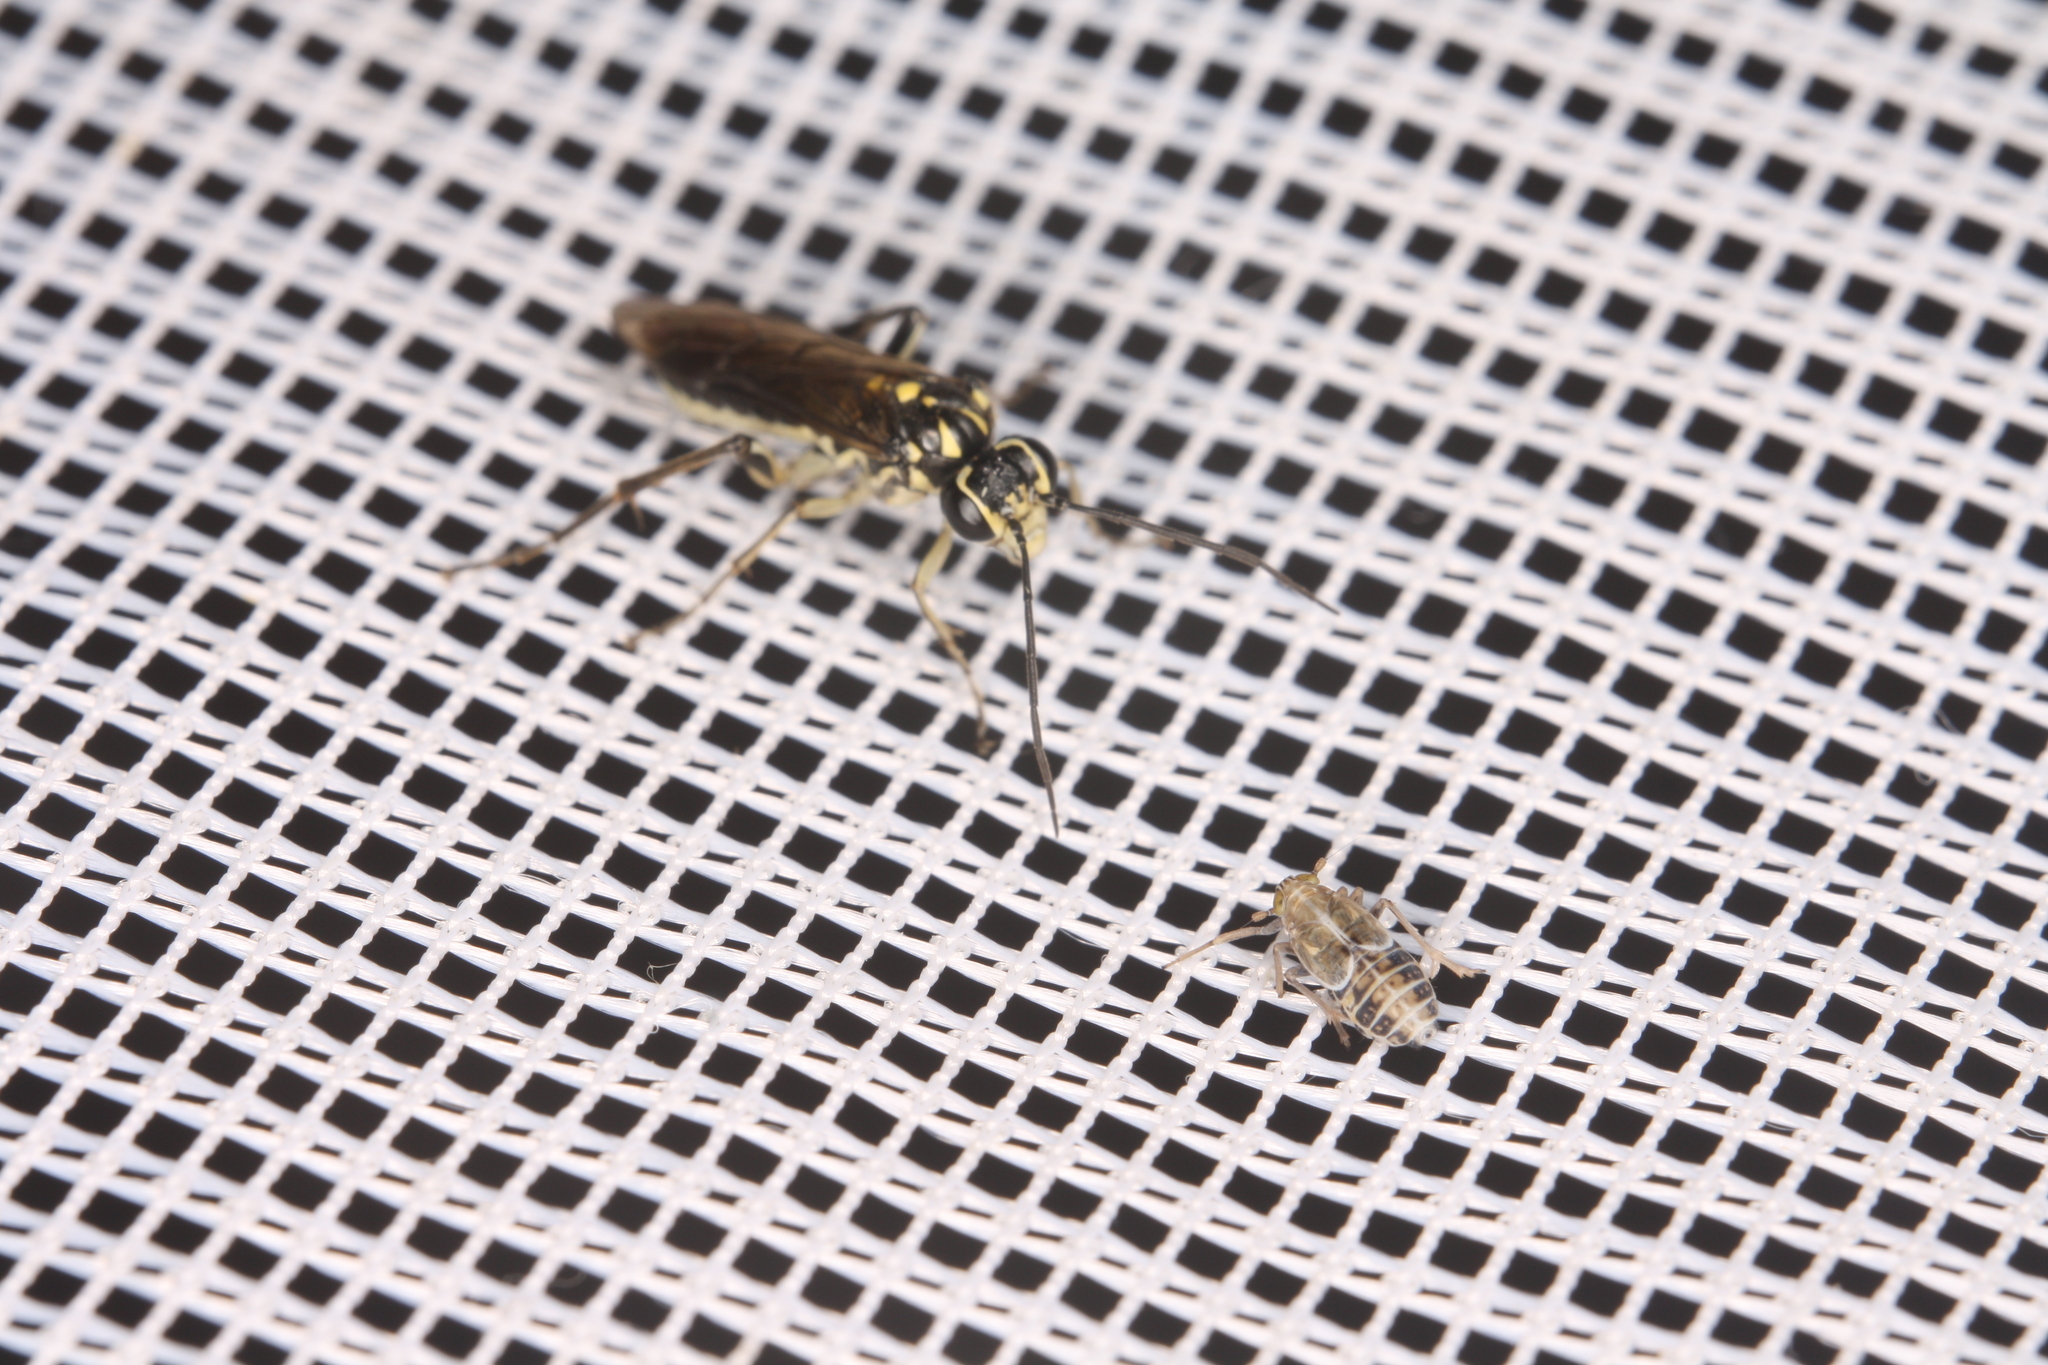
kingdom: Animalia
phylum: Arthropoda
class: Insecta
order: Hymenoptera
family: Tenthredinidae
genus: Pachyprotasis
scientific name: Pachyprotasis rapae
